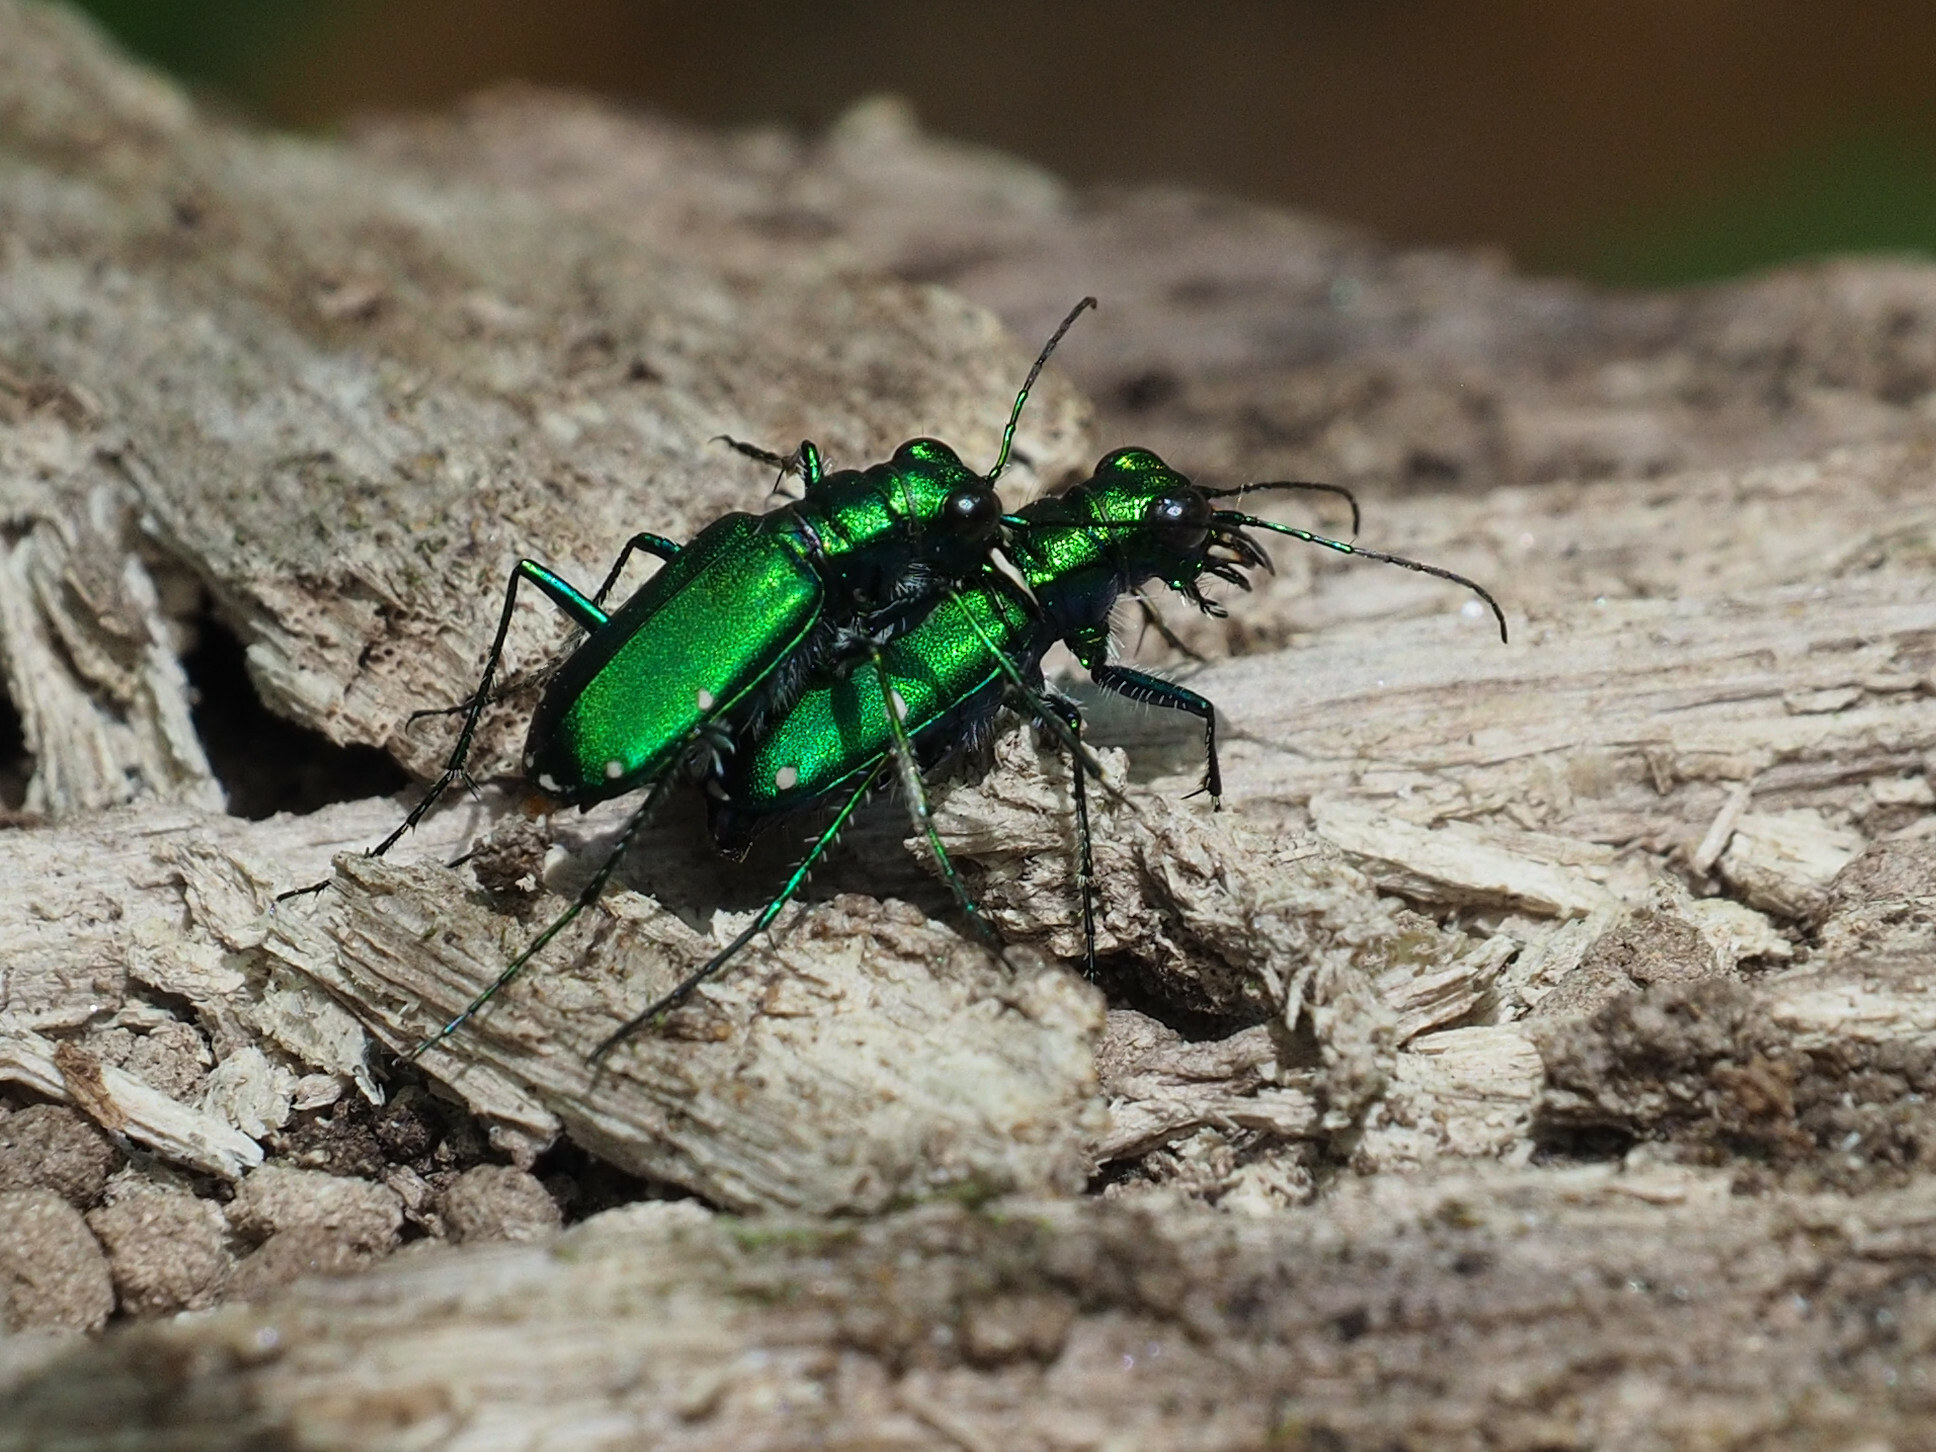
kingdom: Animalia
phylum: Arthropoda
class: Insecta
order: Coleoptera
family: Carabidae
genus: Cicindela
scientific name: Cicindela sexguttata
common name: Six-spotted tiger beetle
